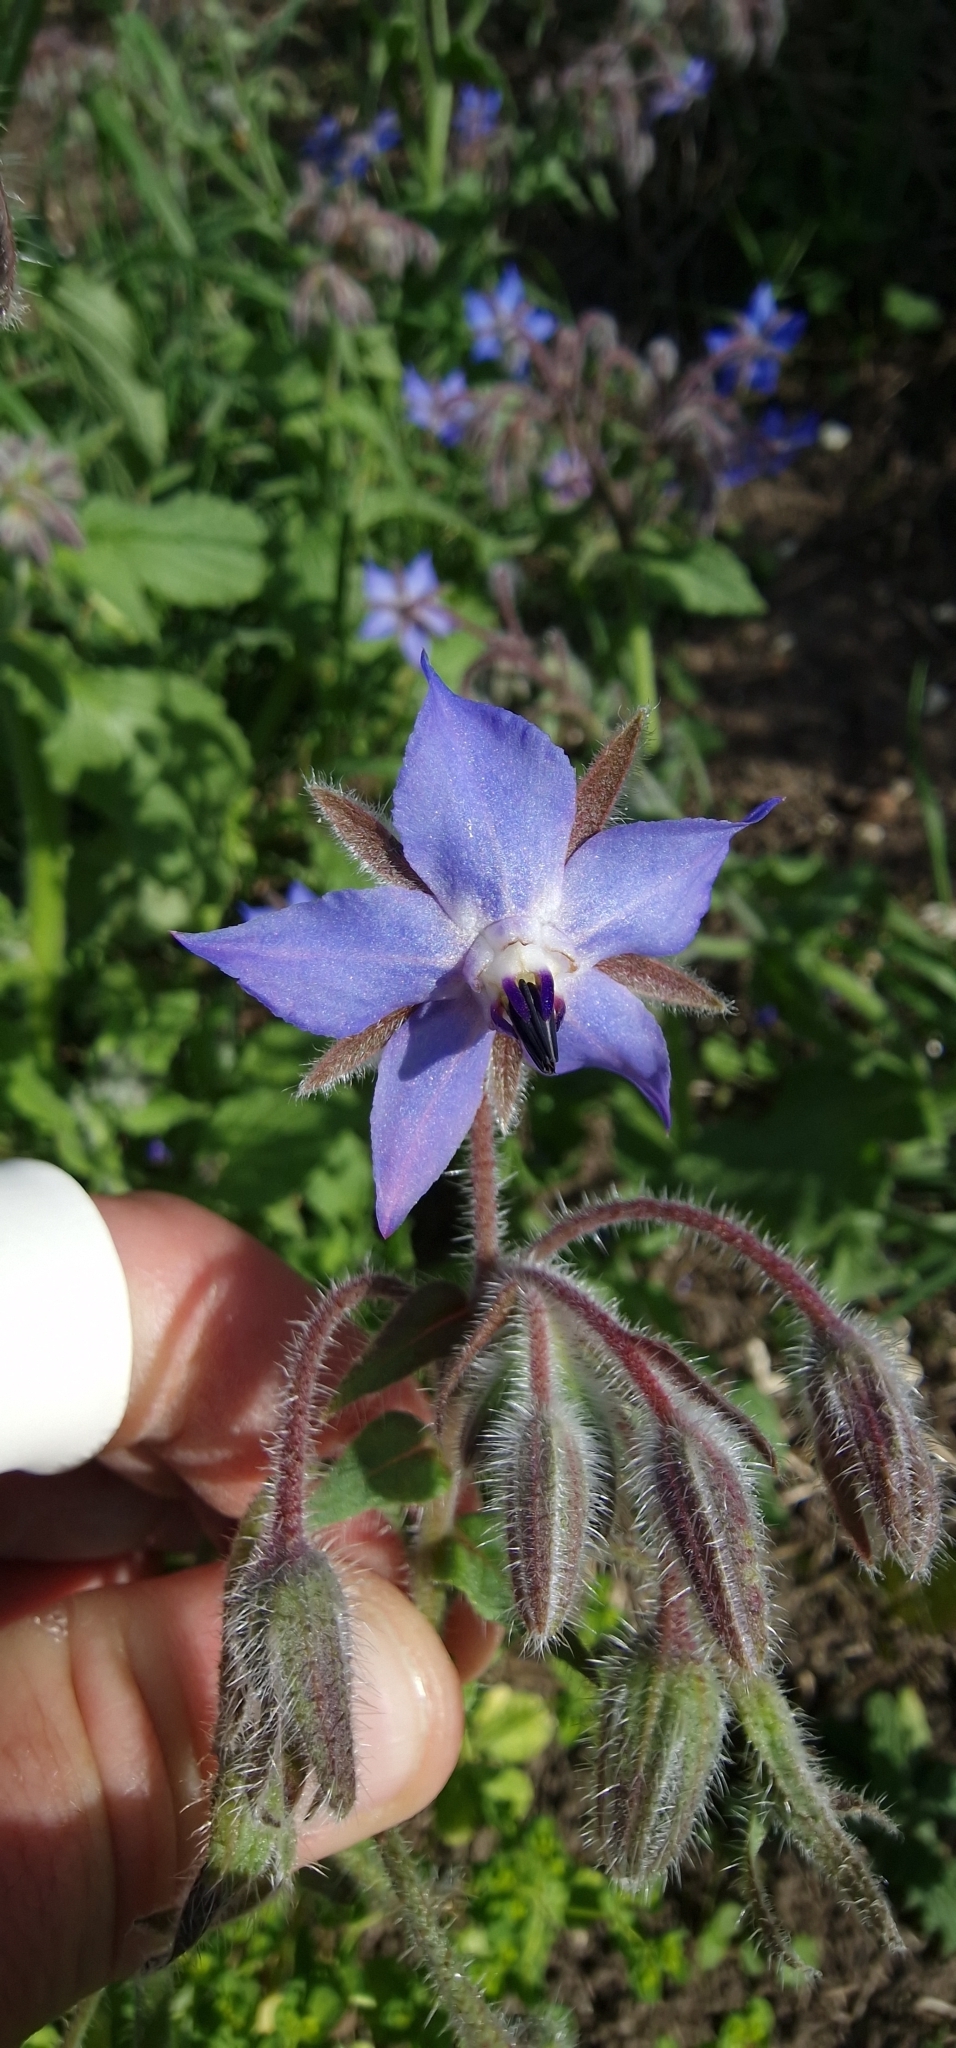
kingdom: Plantae
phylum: Tracheophyta
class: Magnoliopsida
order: Boraginales
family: Boraginaceae
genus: Borago
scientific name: Borago officinalis
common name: Borage
